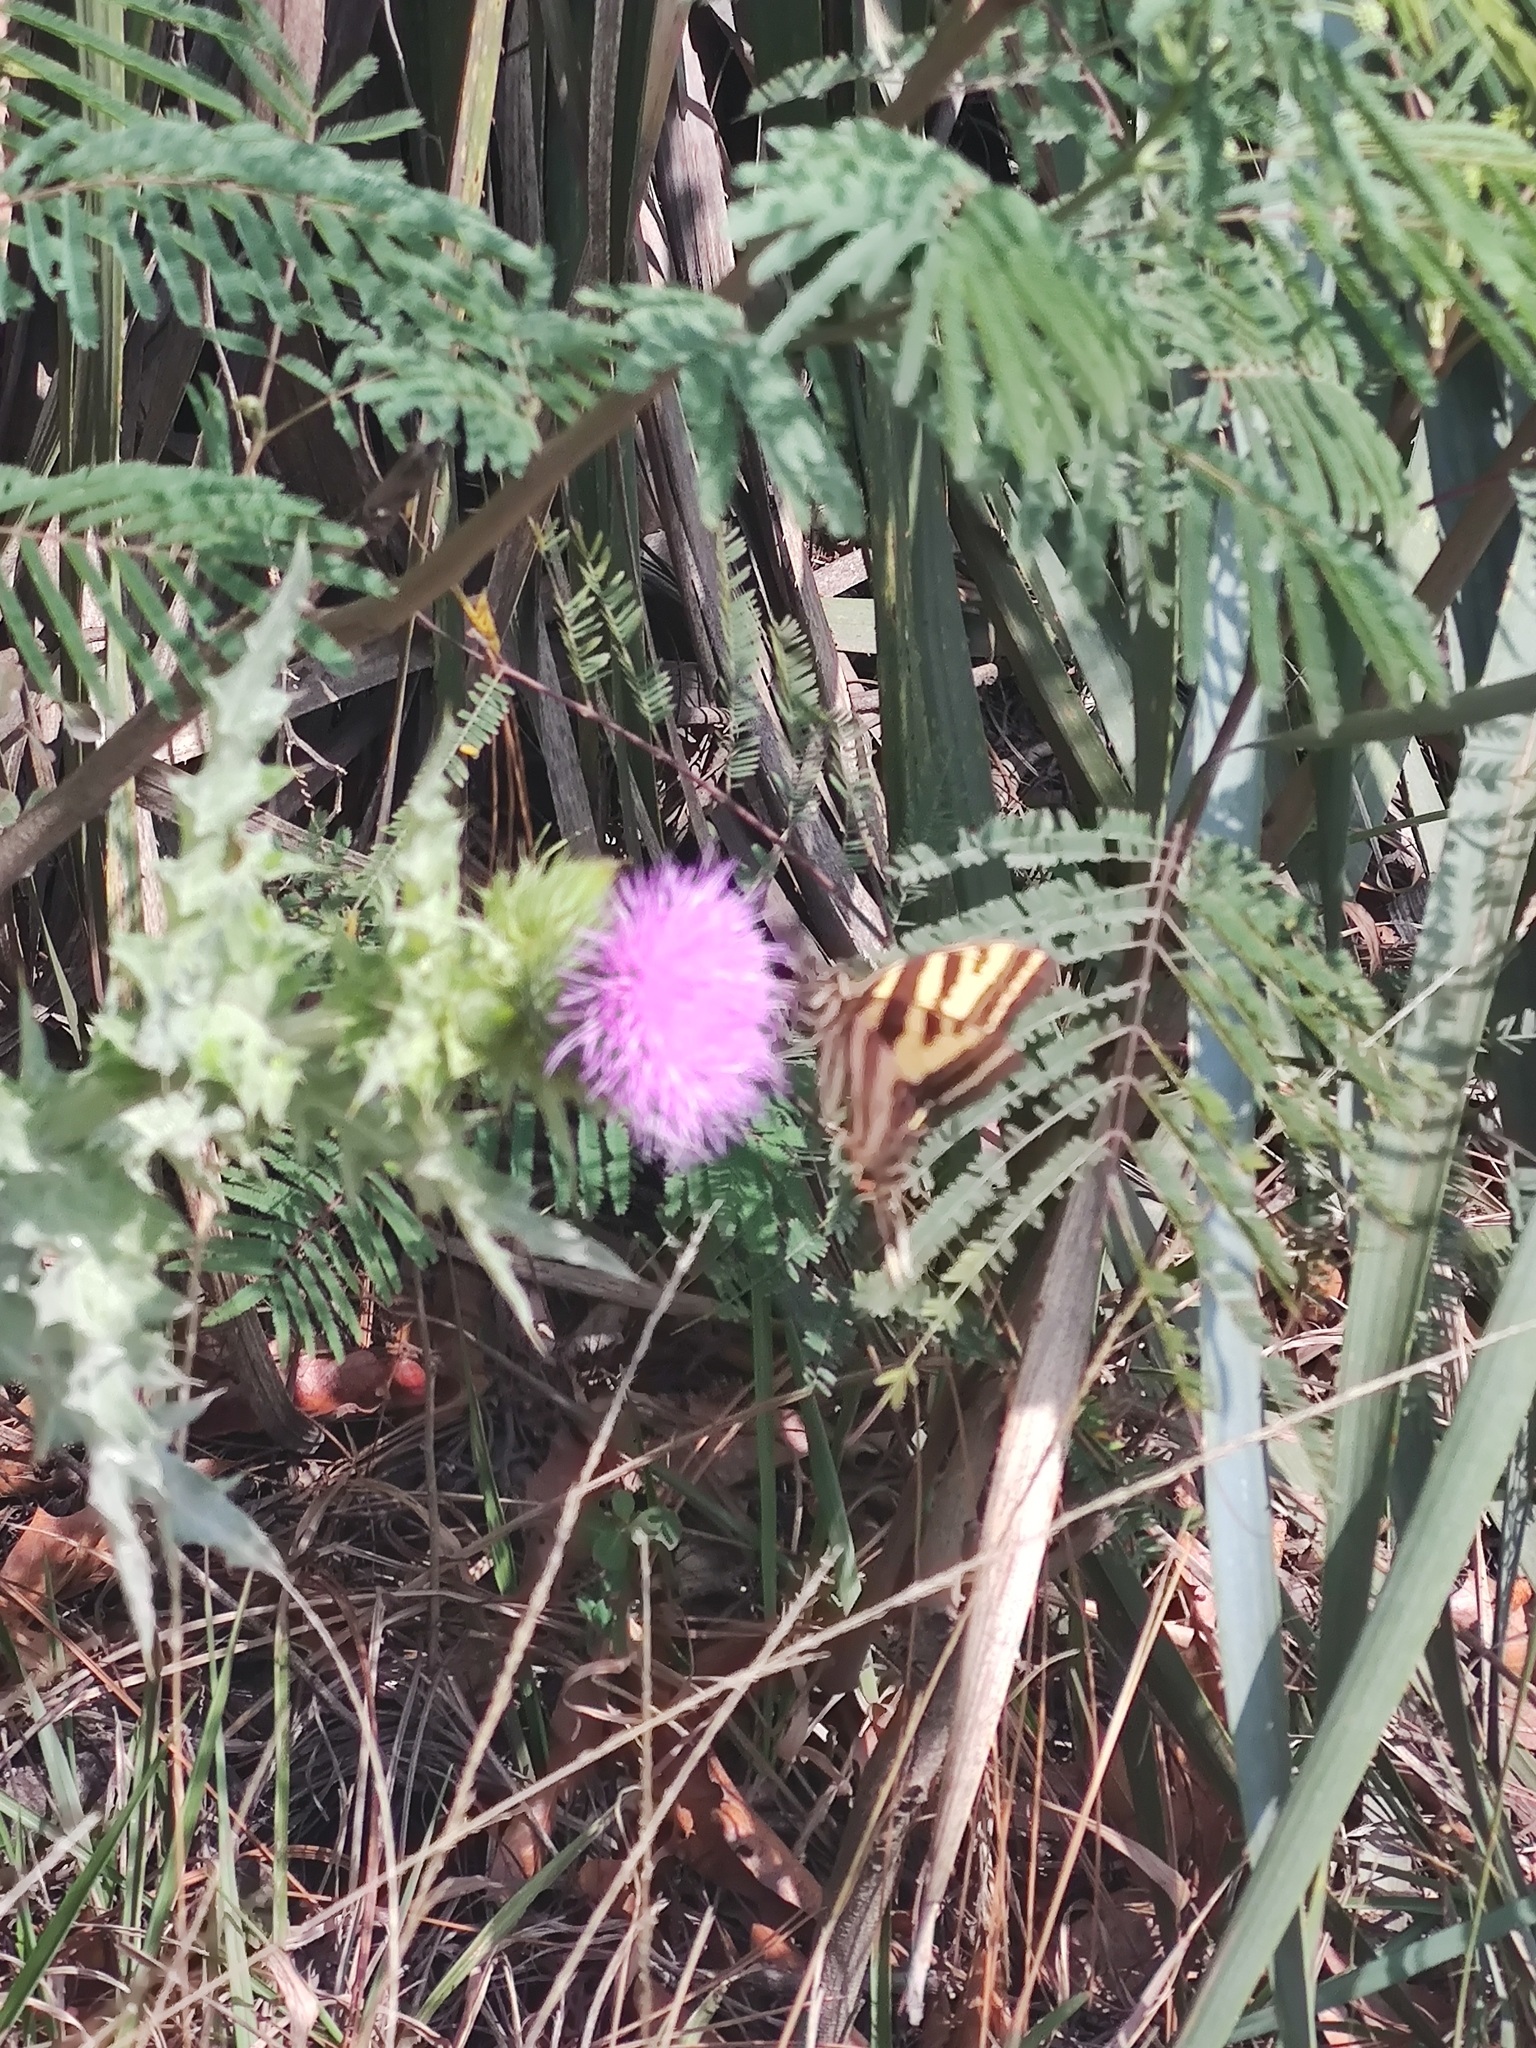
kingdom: Animalia
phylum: Arthropoda
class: Insecta
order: Lepidoptera
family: Papilionidae
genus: Papilio
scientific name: Papilio pilumnus
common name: Three-tailed tiger swallowtail
